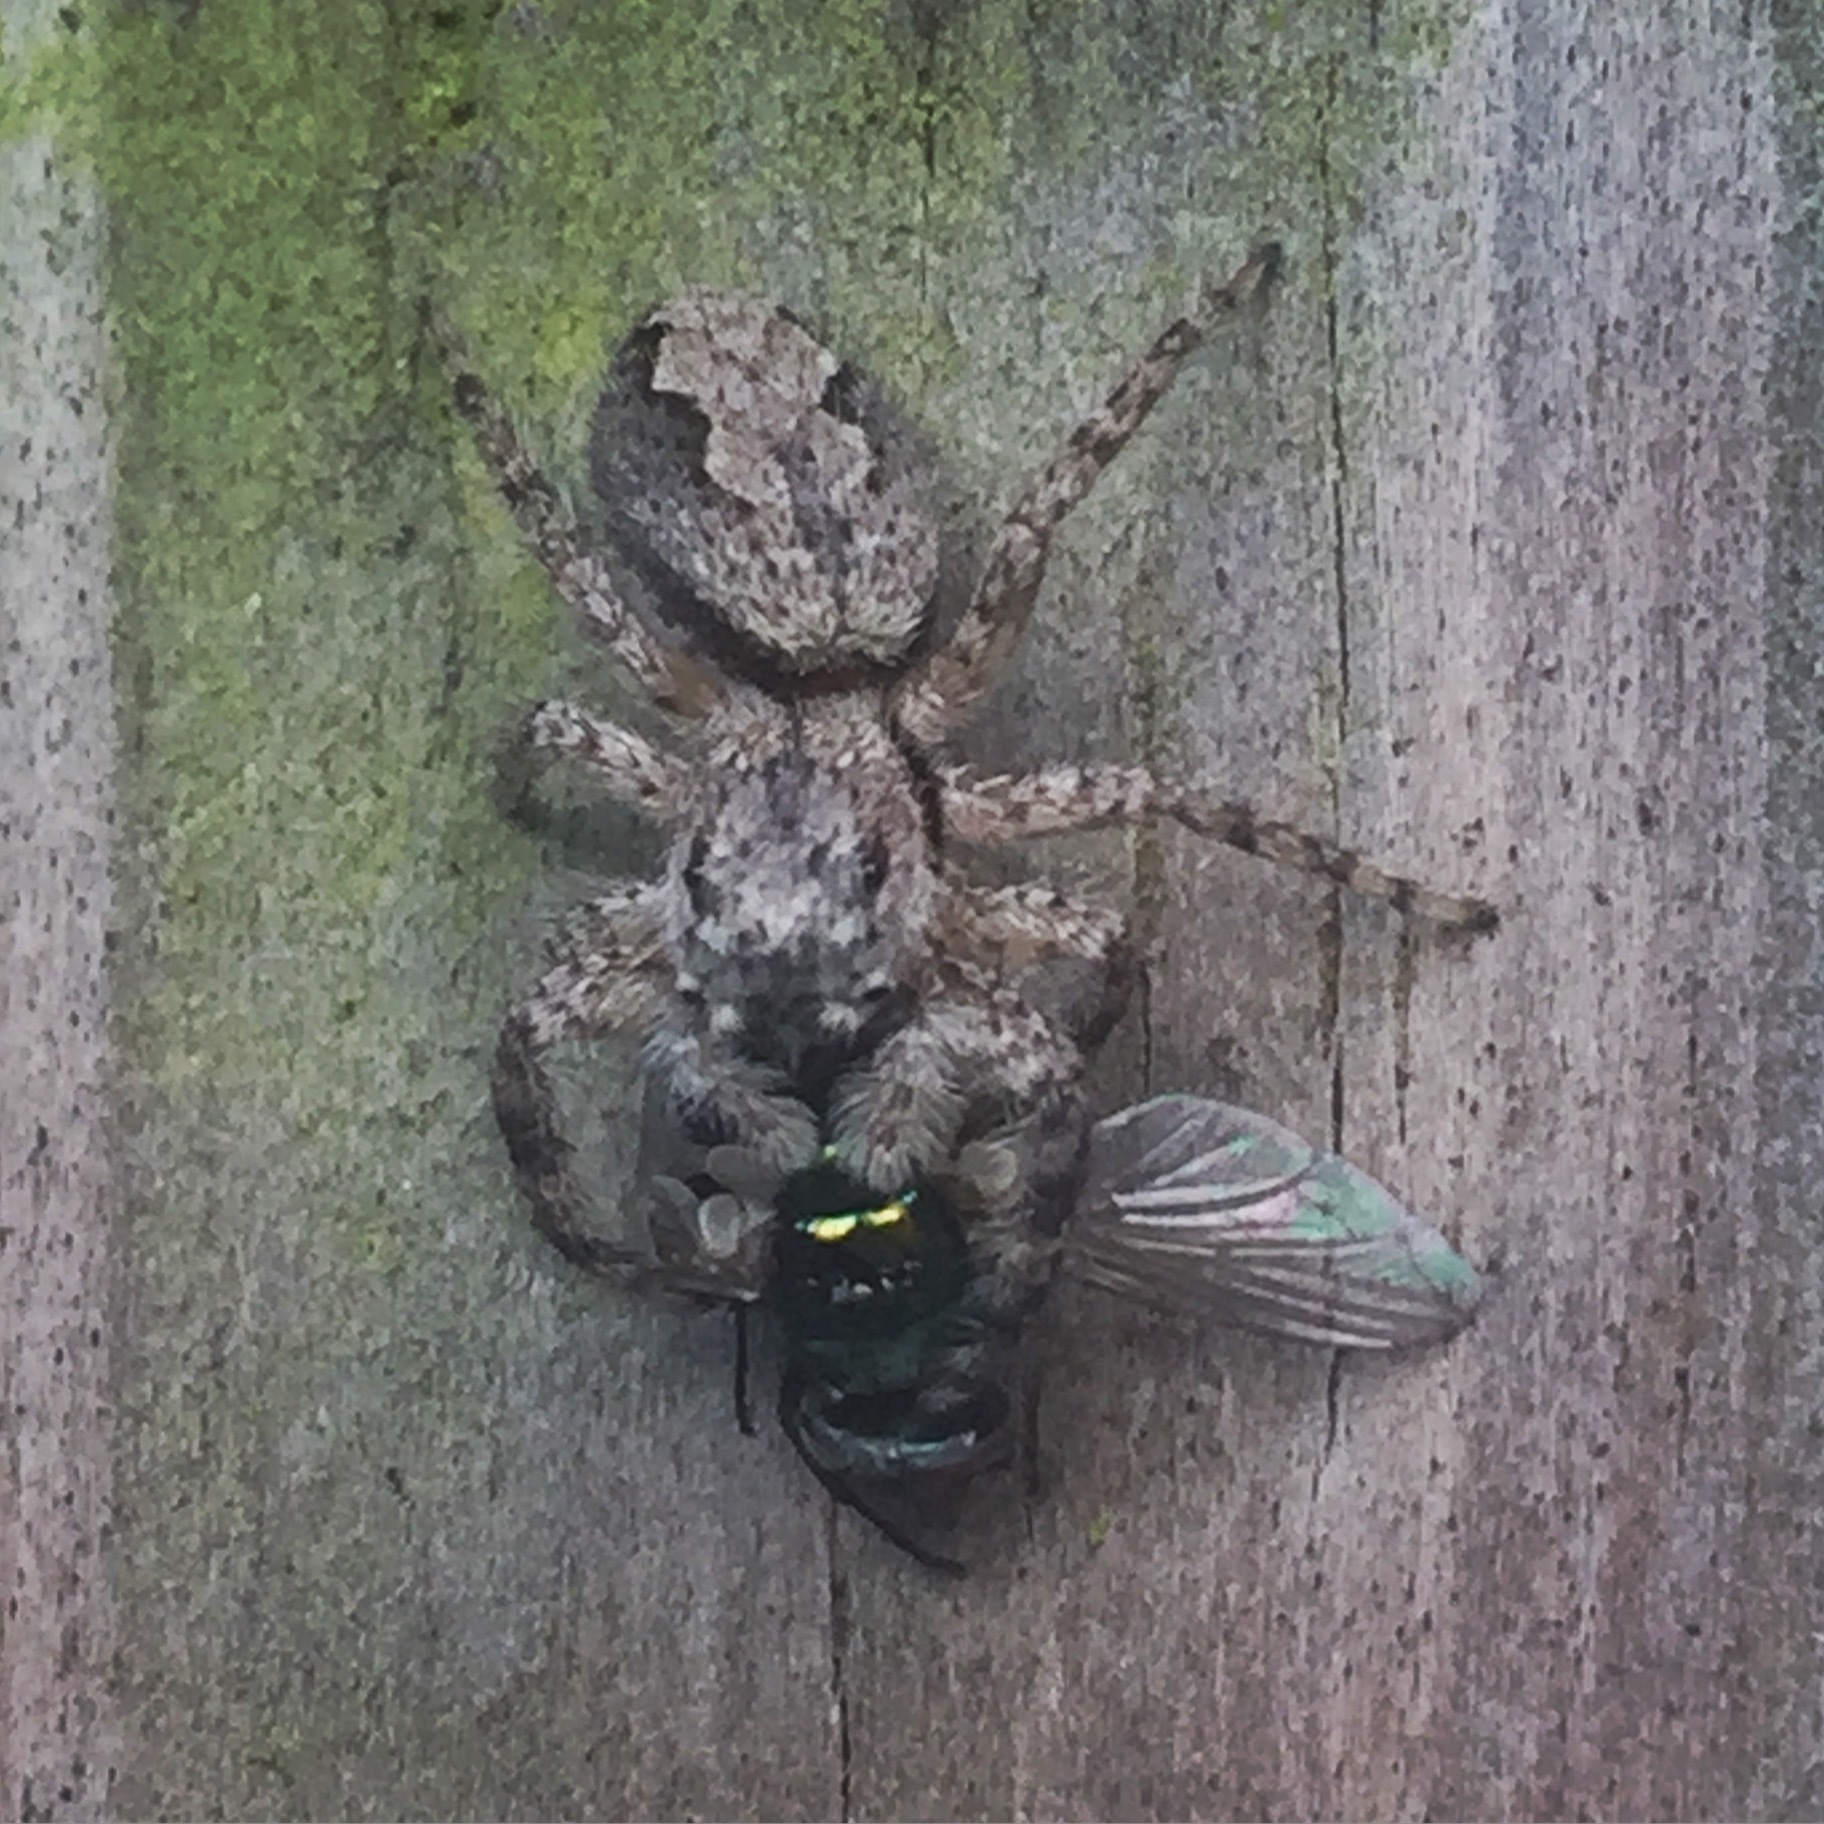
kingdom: Animalia
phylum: Arthropoda
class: Arachnida
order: Araneae
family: Salticidae
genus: Platycryptus
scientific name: Platycryptus undatus
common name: Tan jumping spider
